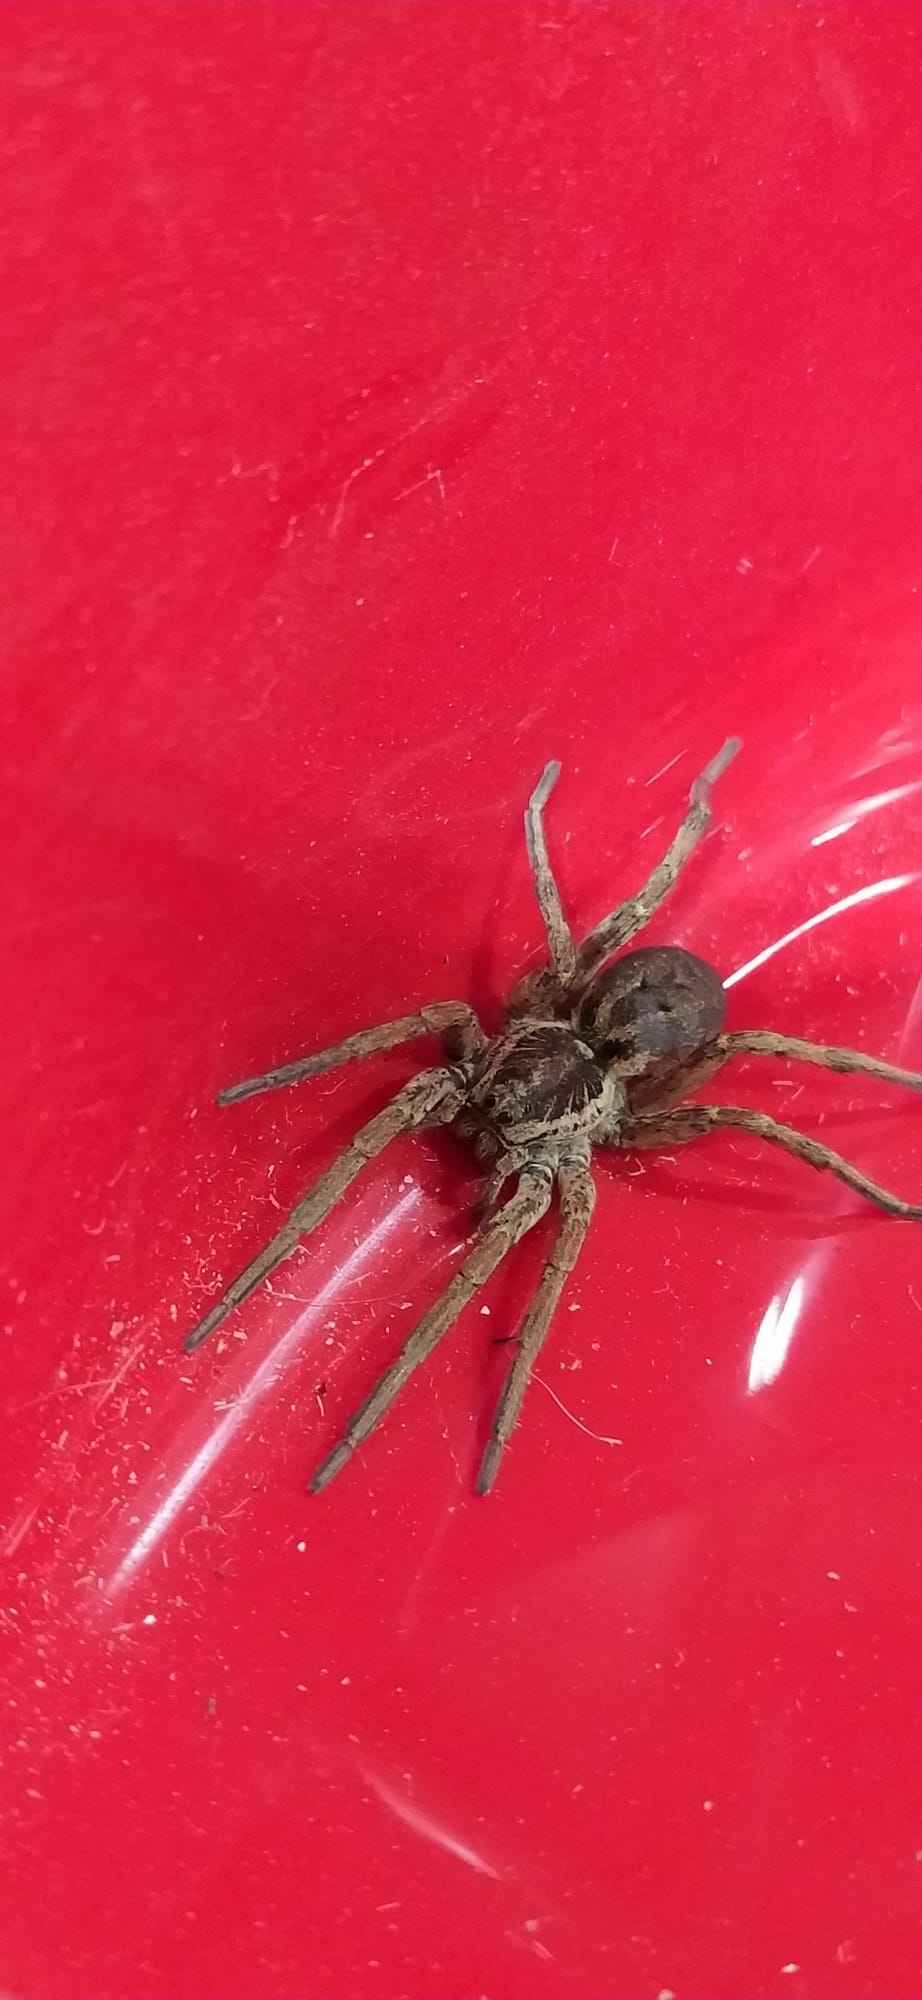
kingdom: Animalia
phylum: Arthropoda
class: Arachnida
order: Araneae
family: Lycosidae
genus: Hogna
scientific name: Hogna radiata
